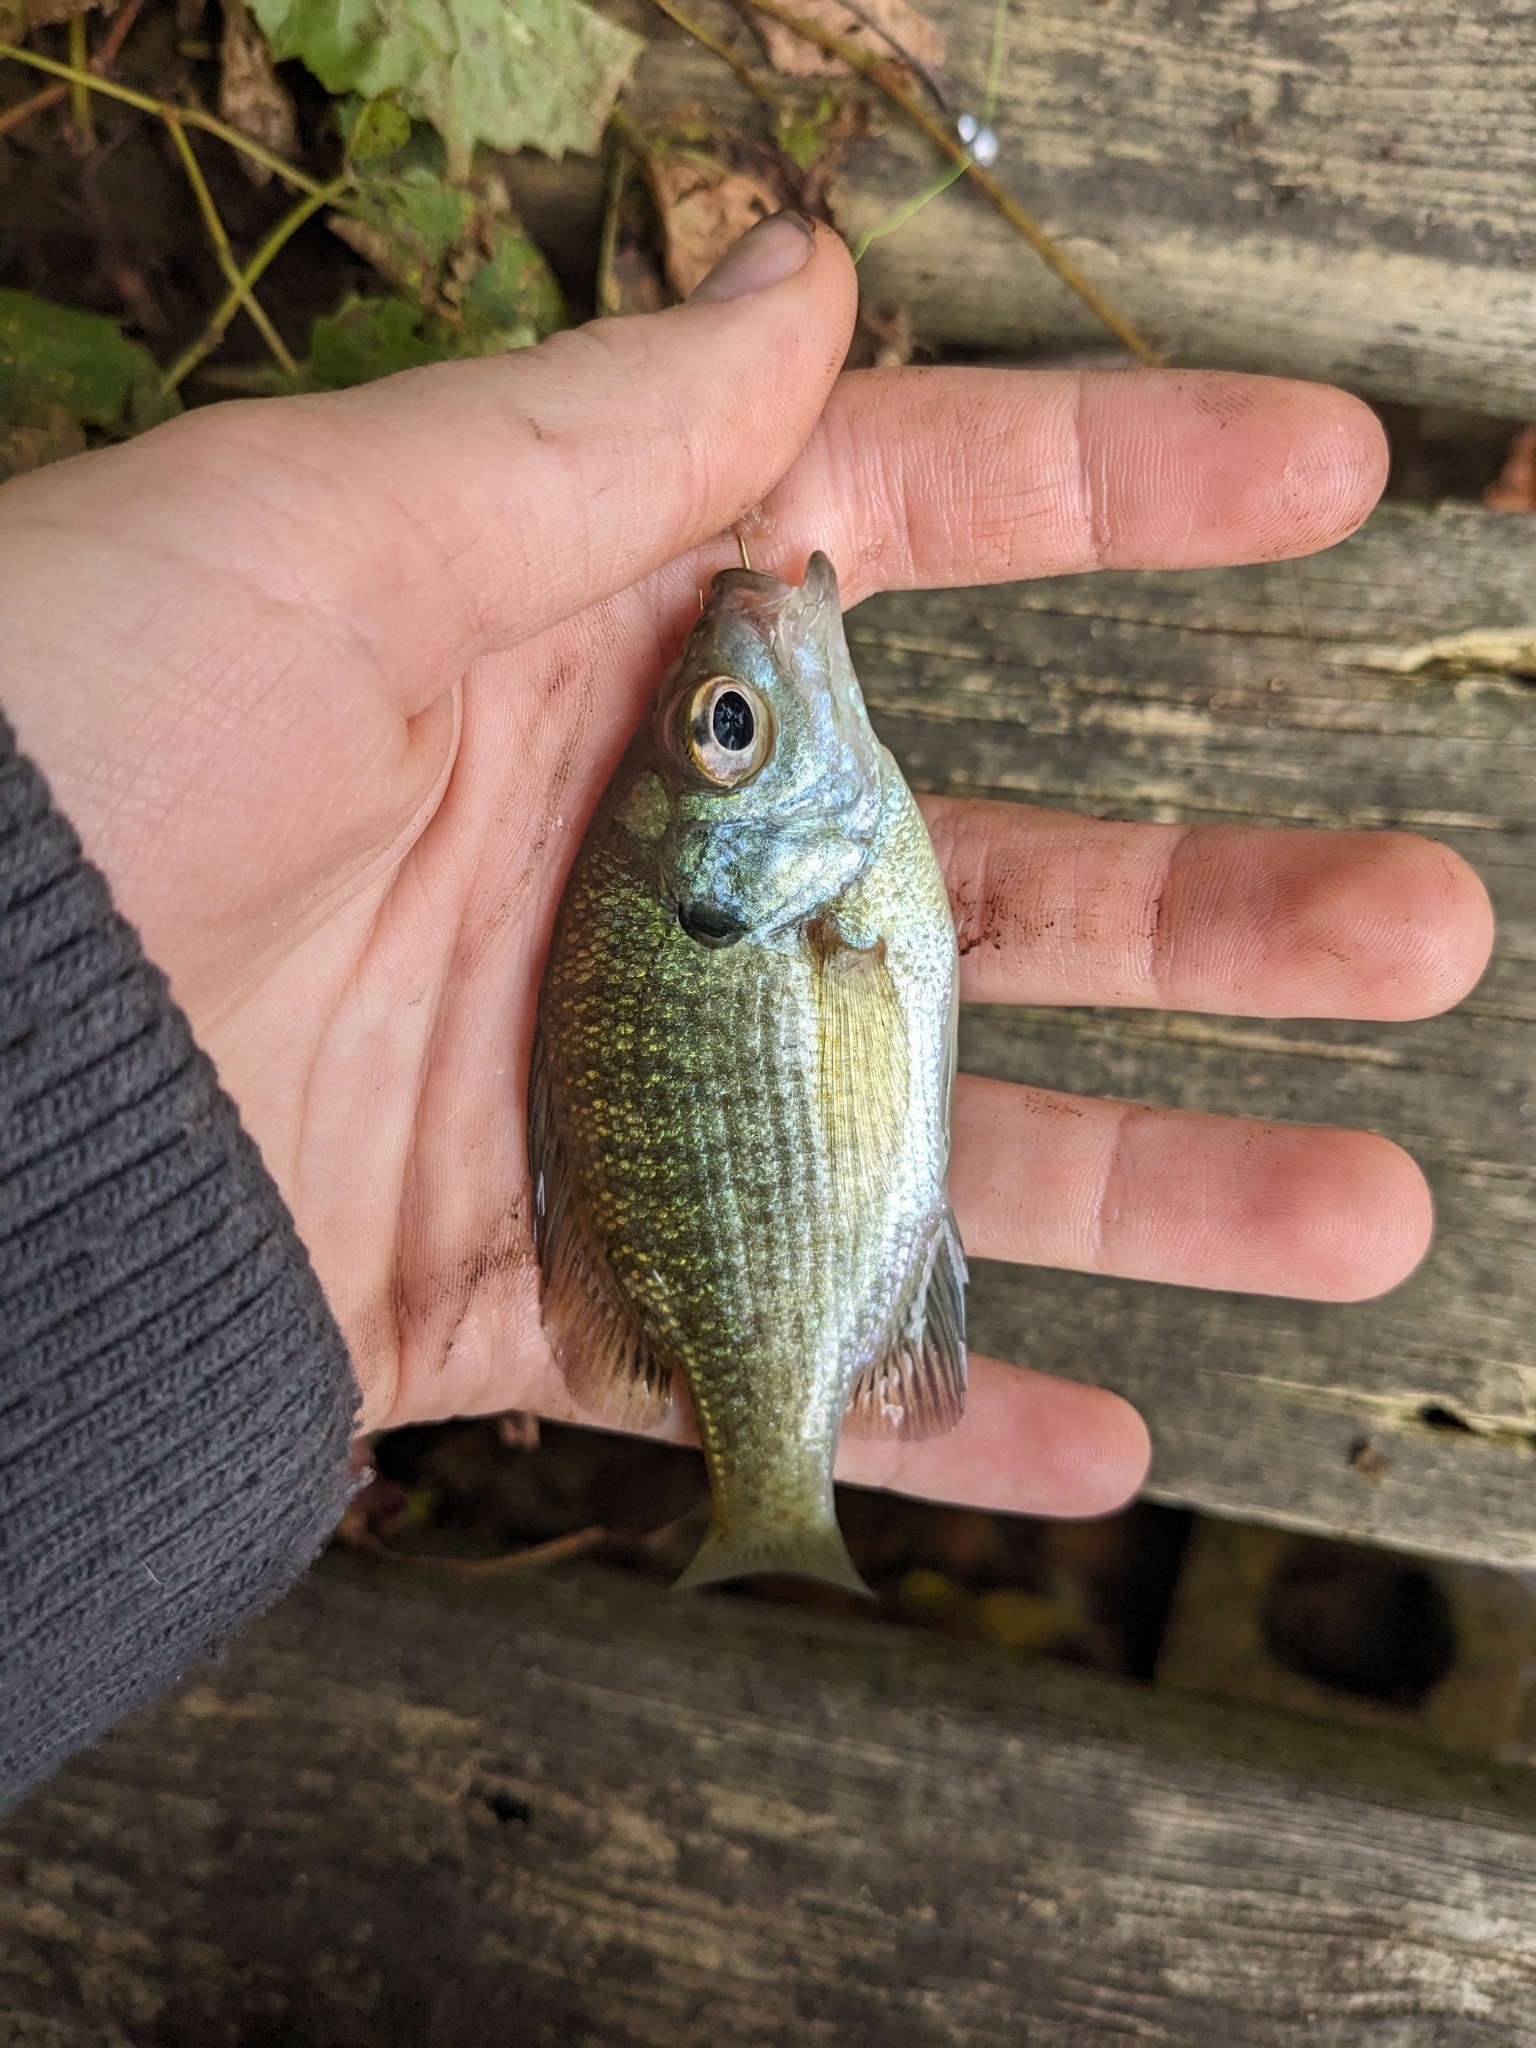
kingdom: Animalia
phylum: Chordata
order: Perciformes
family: Centrarchidae
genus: Lepomis
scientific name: Lepomis macrochirus
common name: Bluegill
